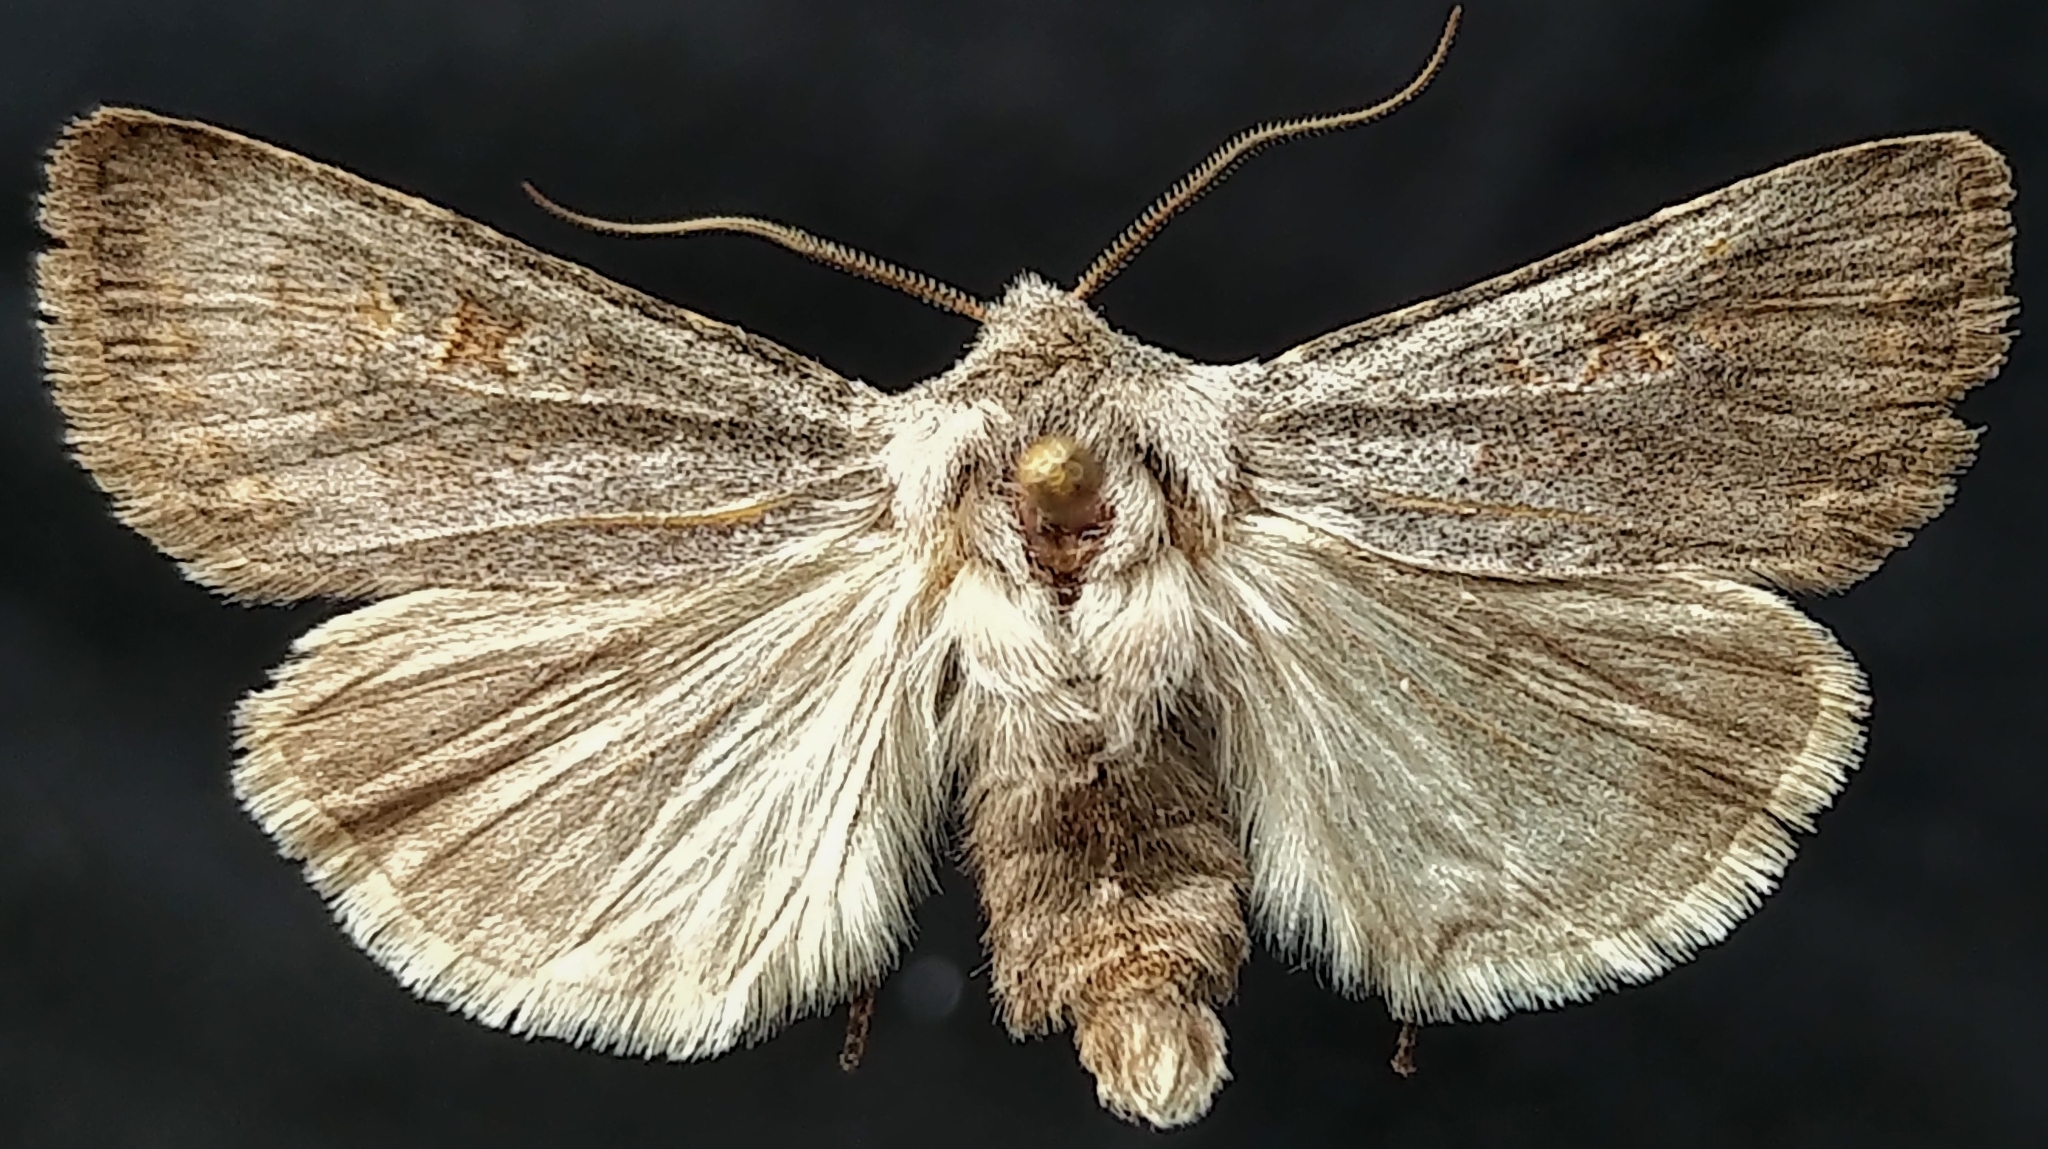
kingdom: Animalia
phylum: Arthropoda
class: Insecta
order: Lepidoptera
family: Noctuidae
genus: Euxoa
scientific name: Euxoa lewisi
